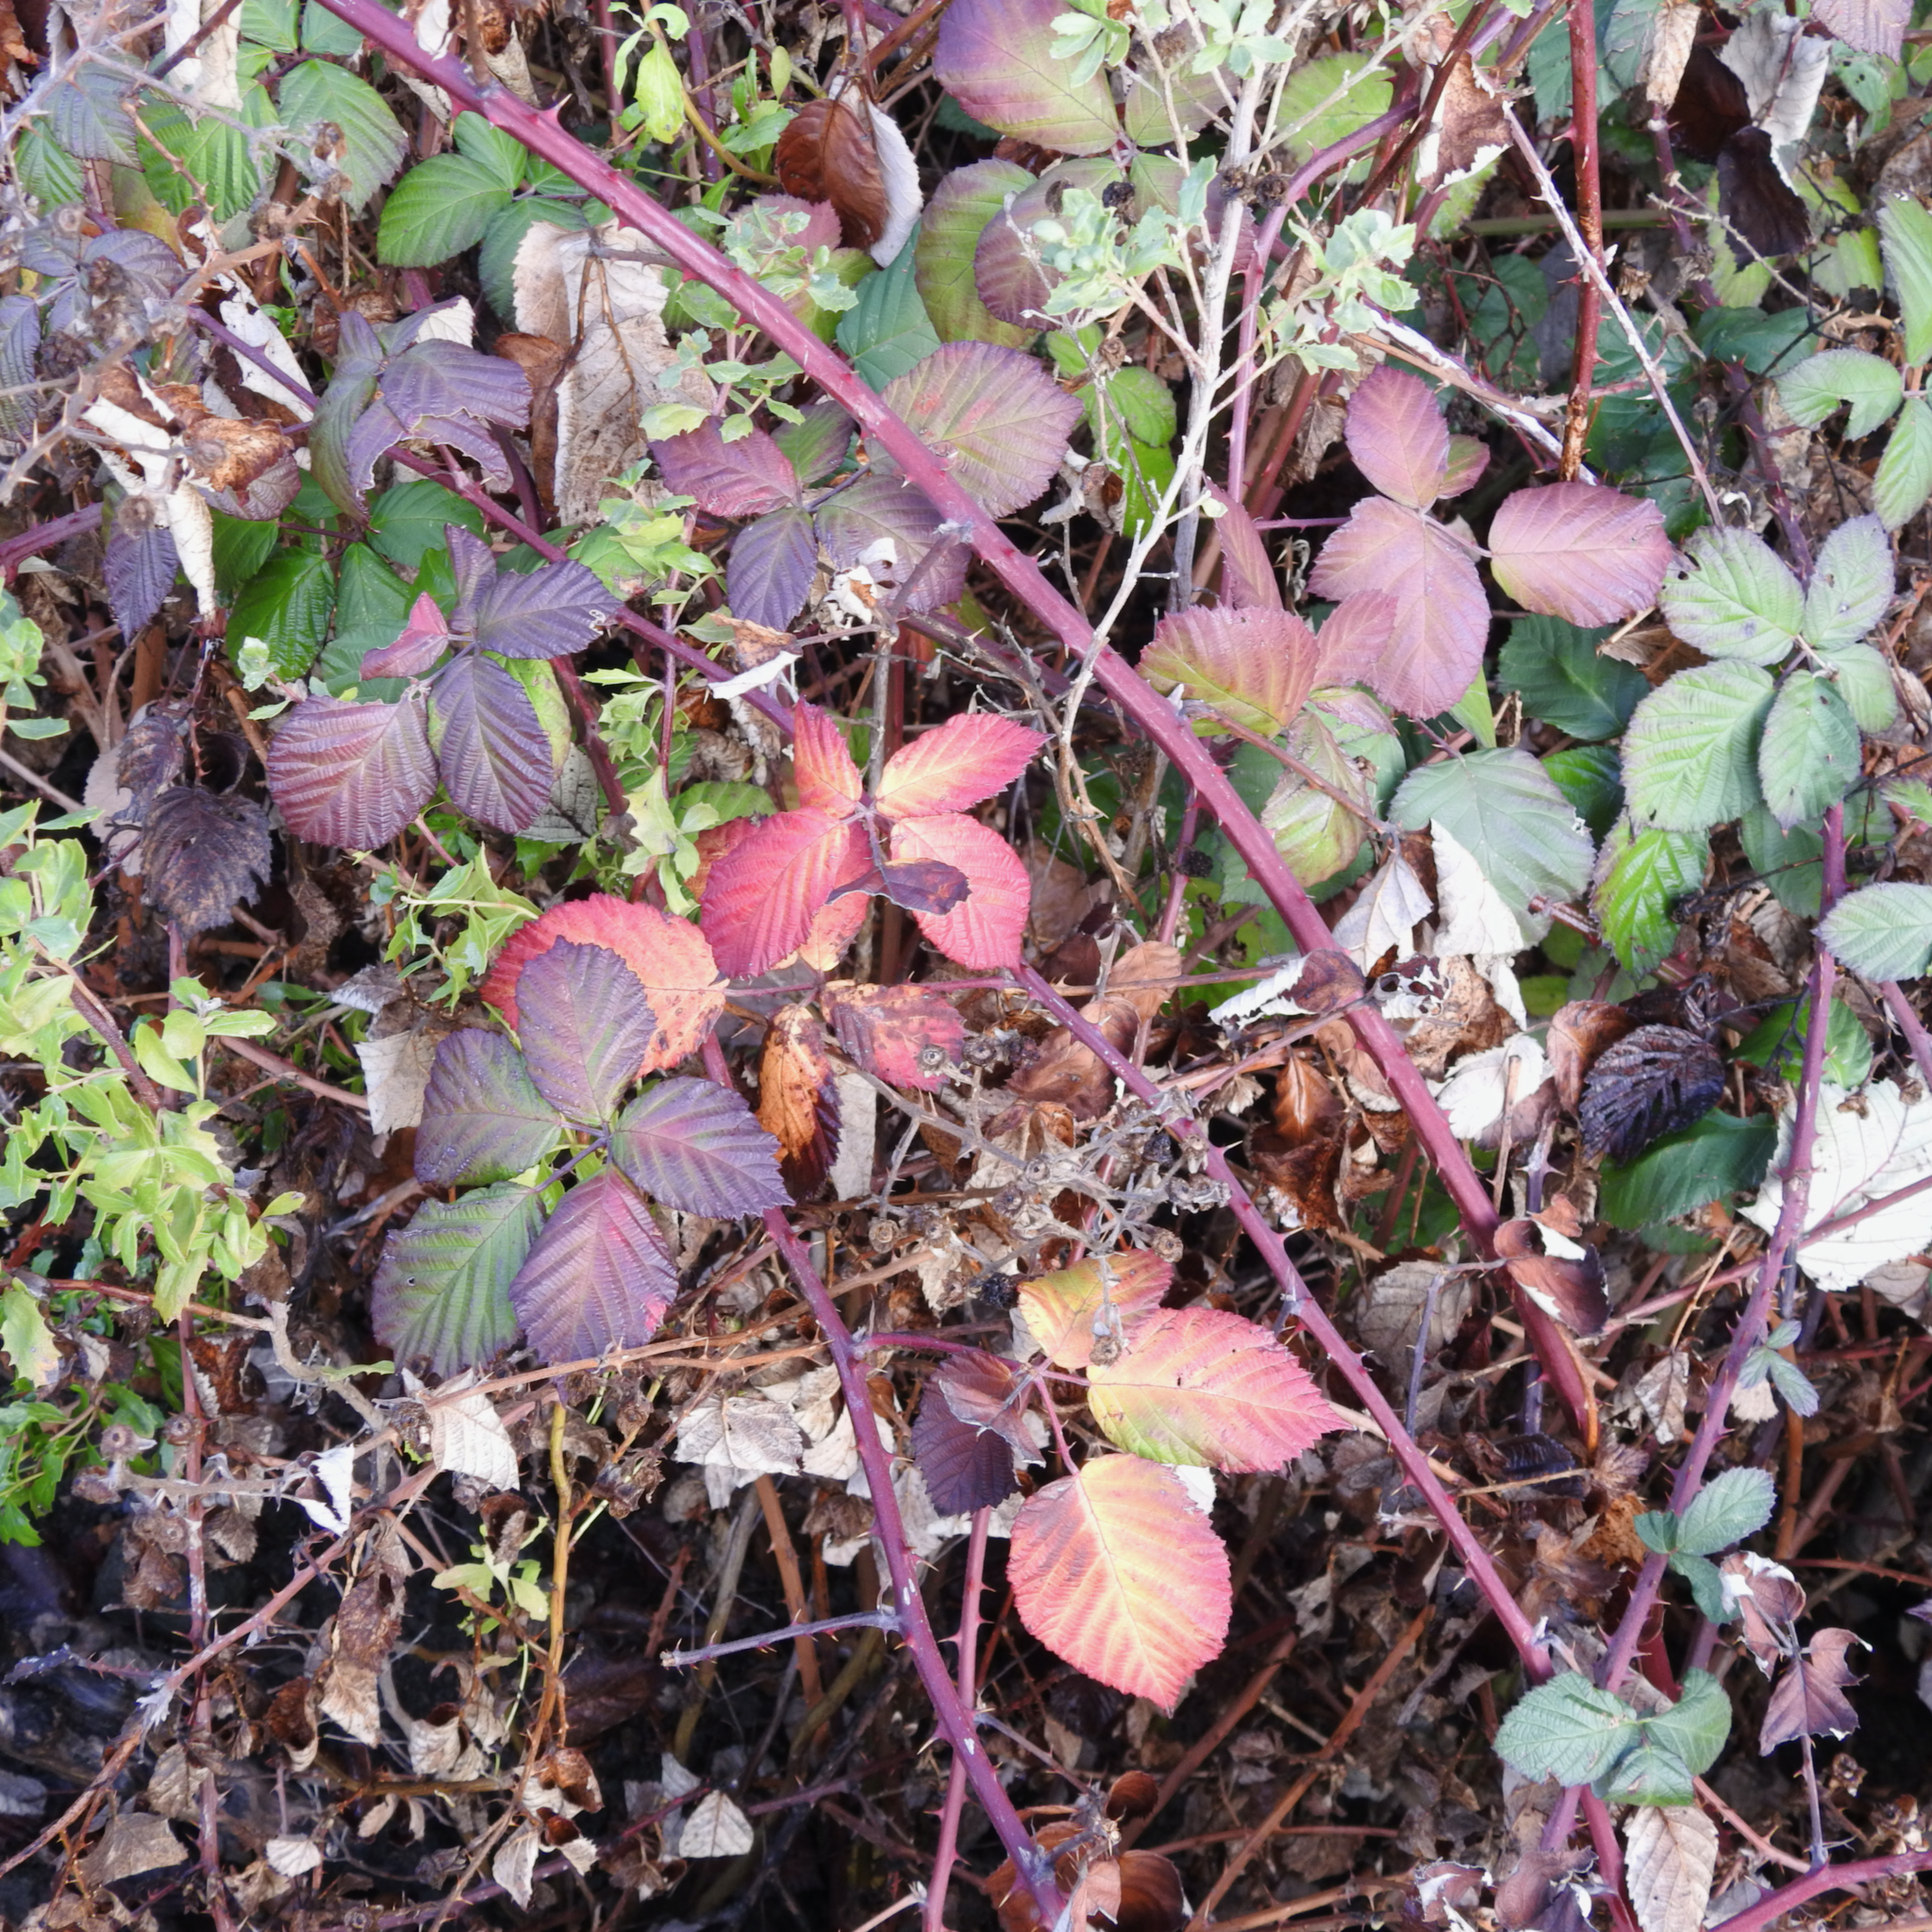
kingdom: Plantae
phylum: Tracheophyta
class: Magnoliopsida
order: Rosales
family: Rosaceae
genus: Rubus
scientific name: Rubus armeniacus
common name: Himalayan blackberry
